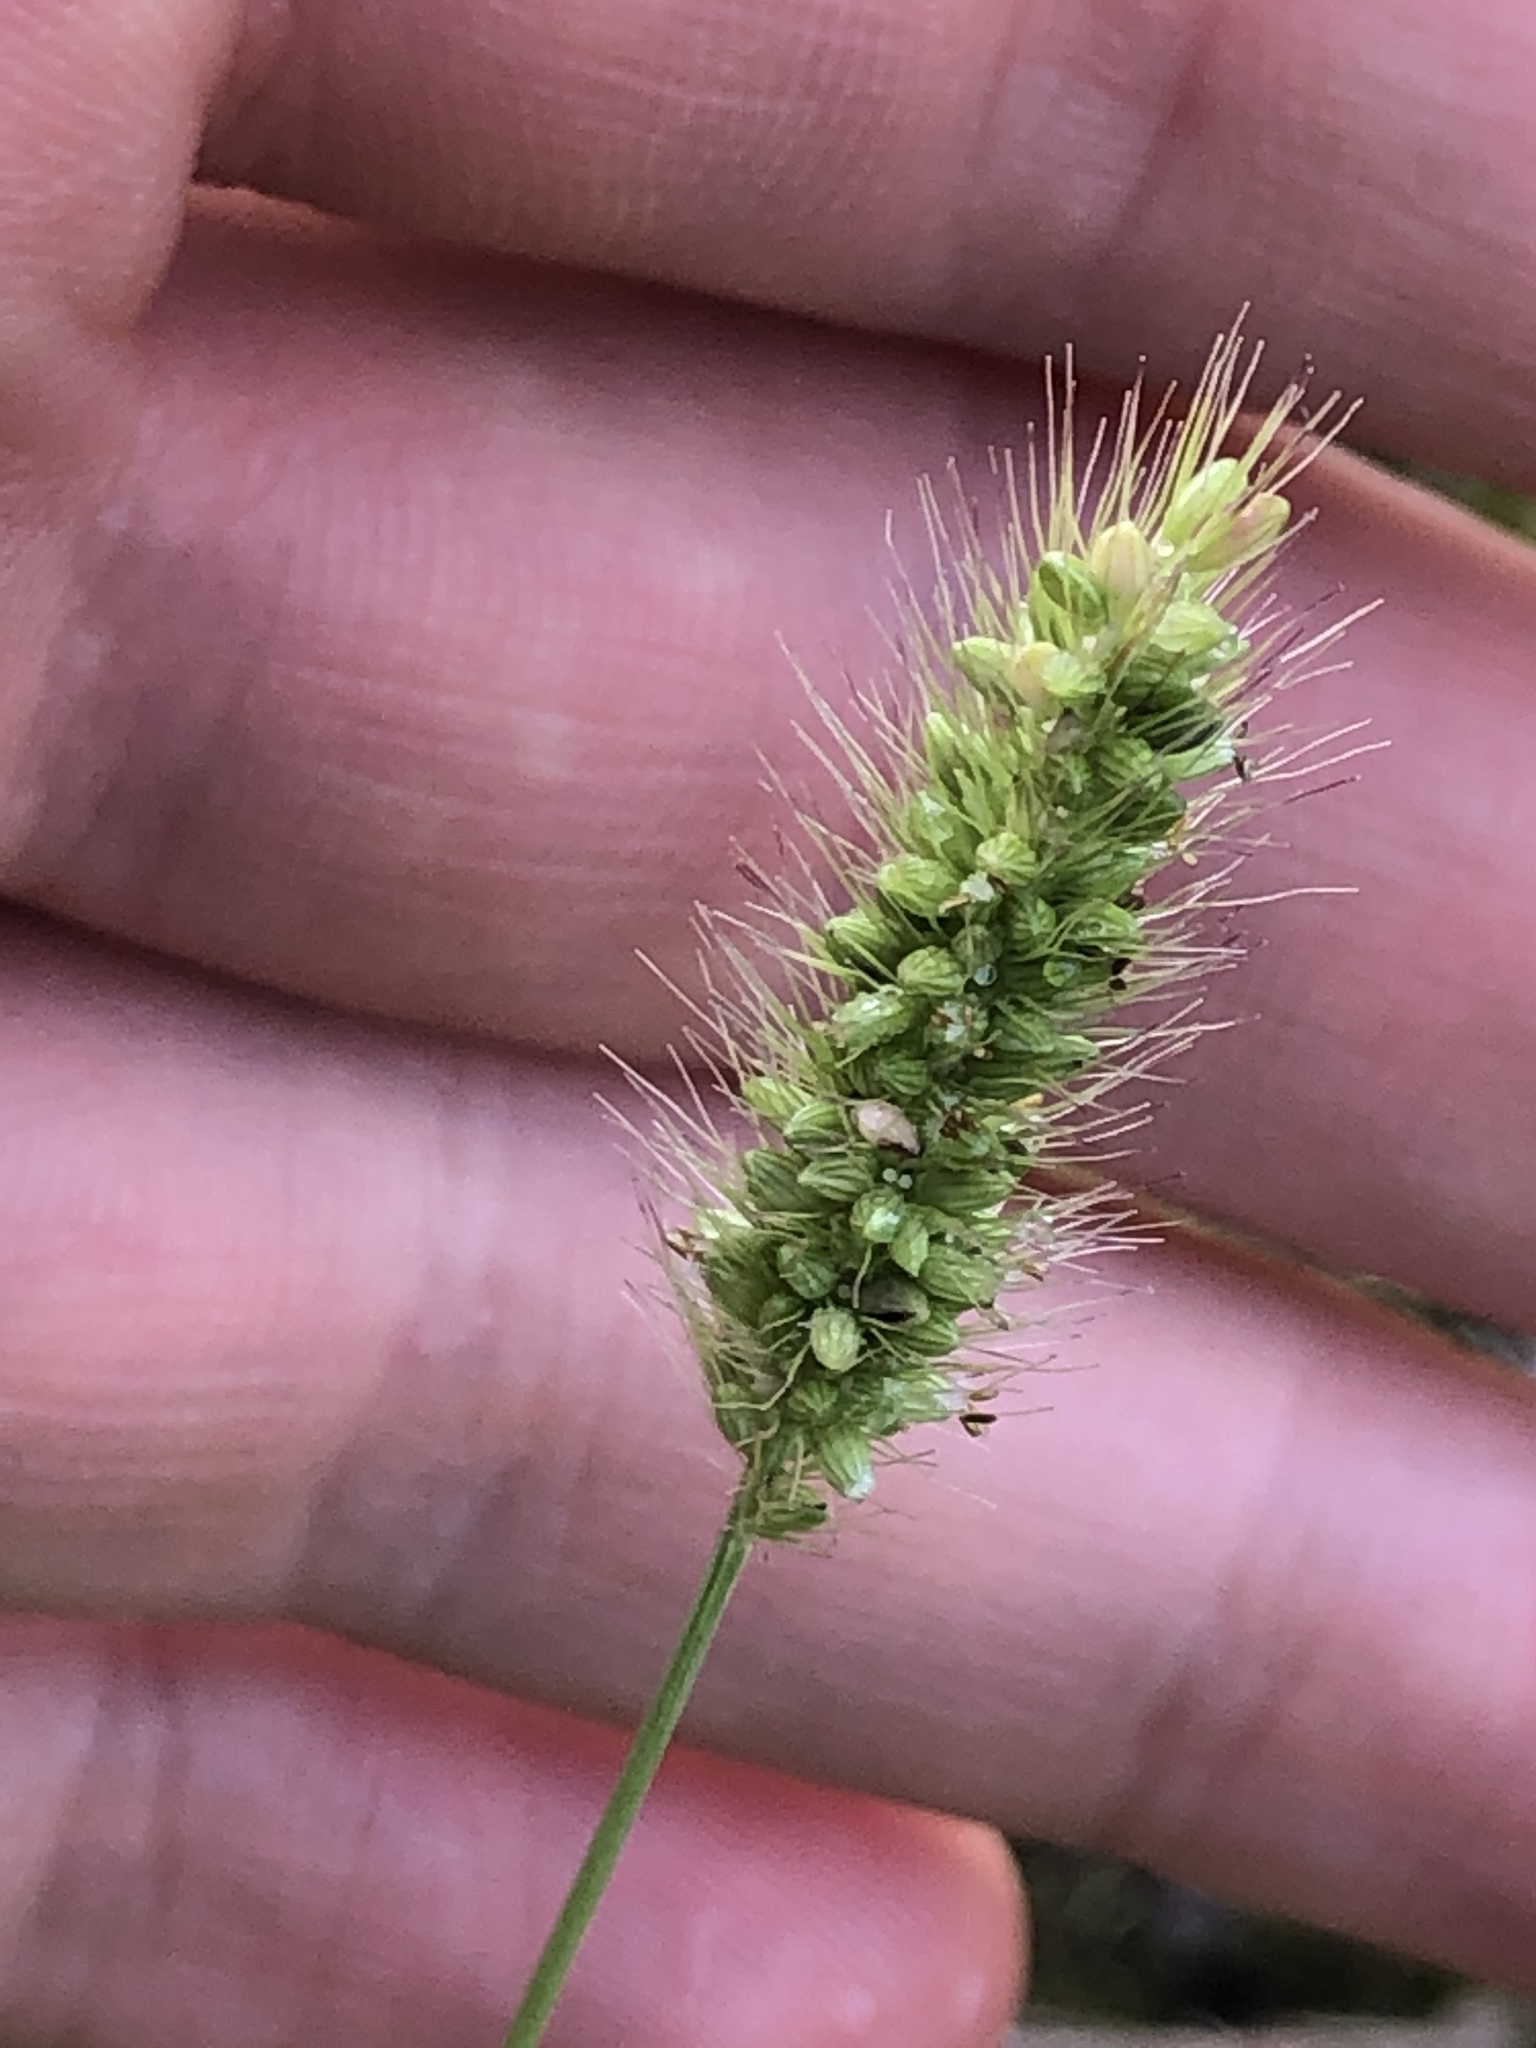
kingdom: Plantae
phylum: Tracheophyta
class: Liliopsida
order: Poales
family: Poaceae
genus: Setaria
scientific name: Setaria viridis
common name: Green bristlegrass
